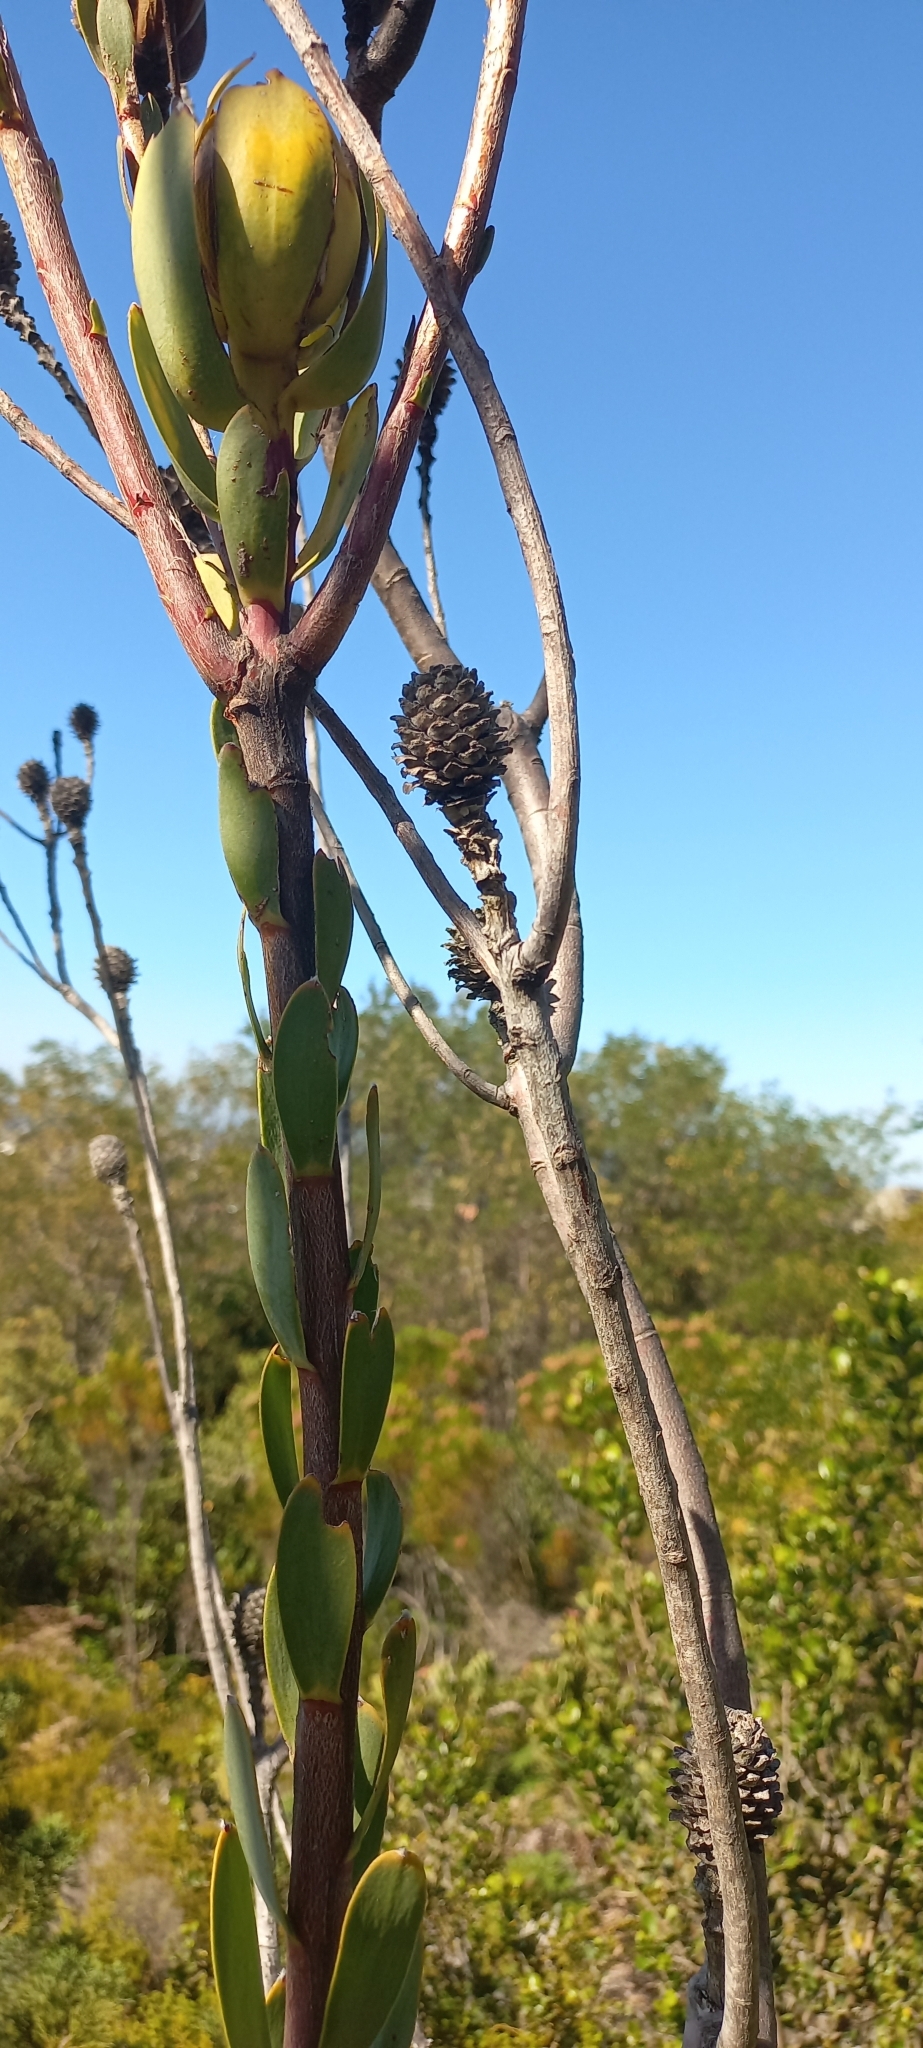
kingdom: Plantae
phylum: Tracheophyta
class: Magnoliopsida
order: Proteales
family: Proteaceae
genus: Leucadendron
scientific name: Leucadendron discolor
